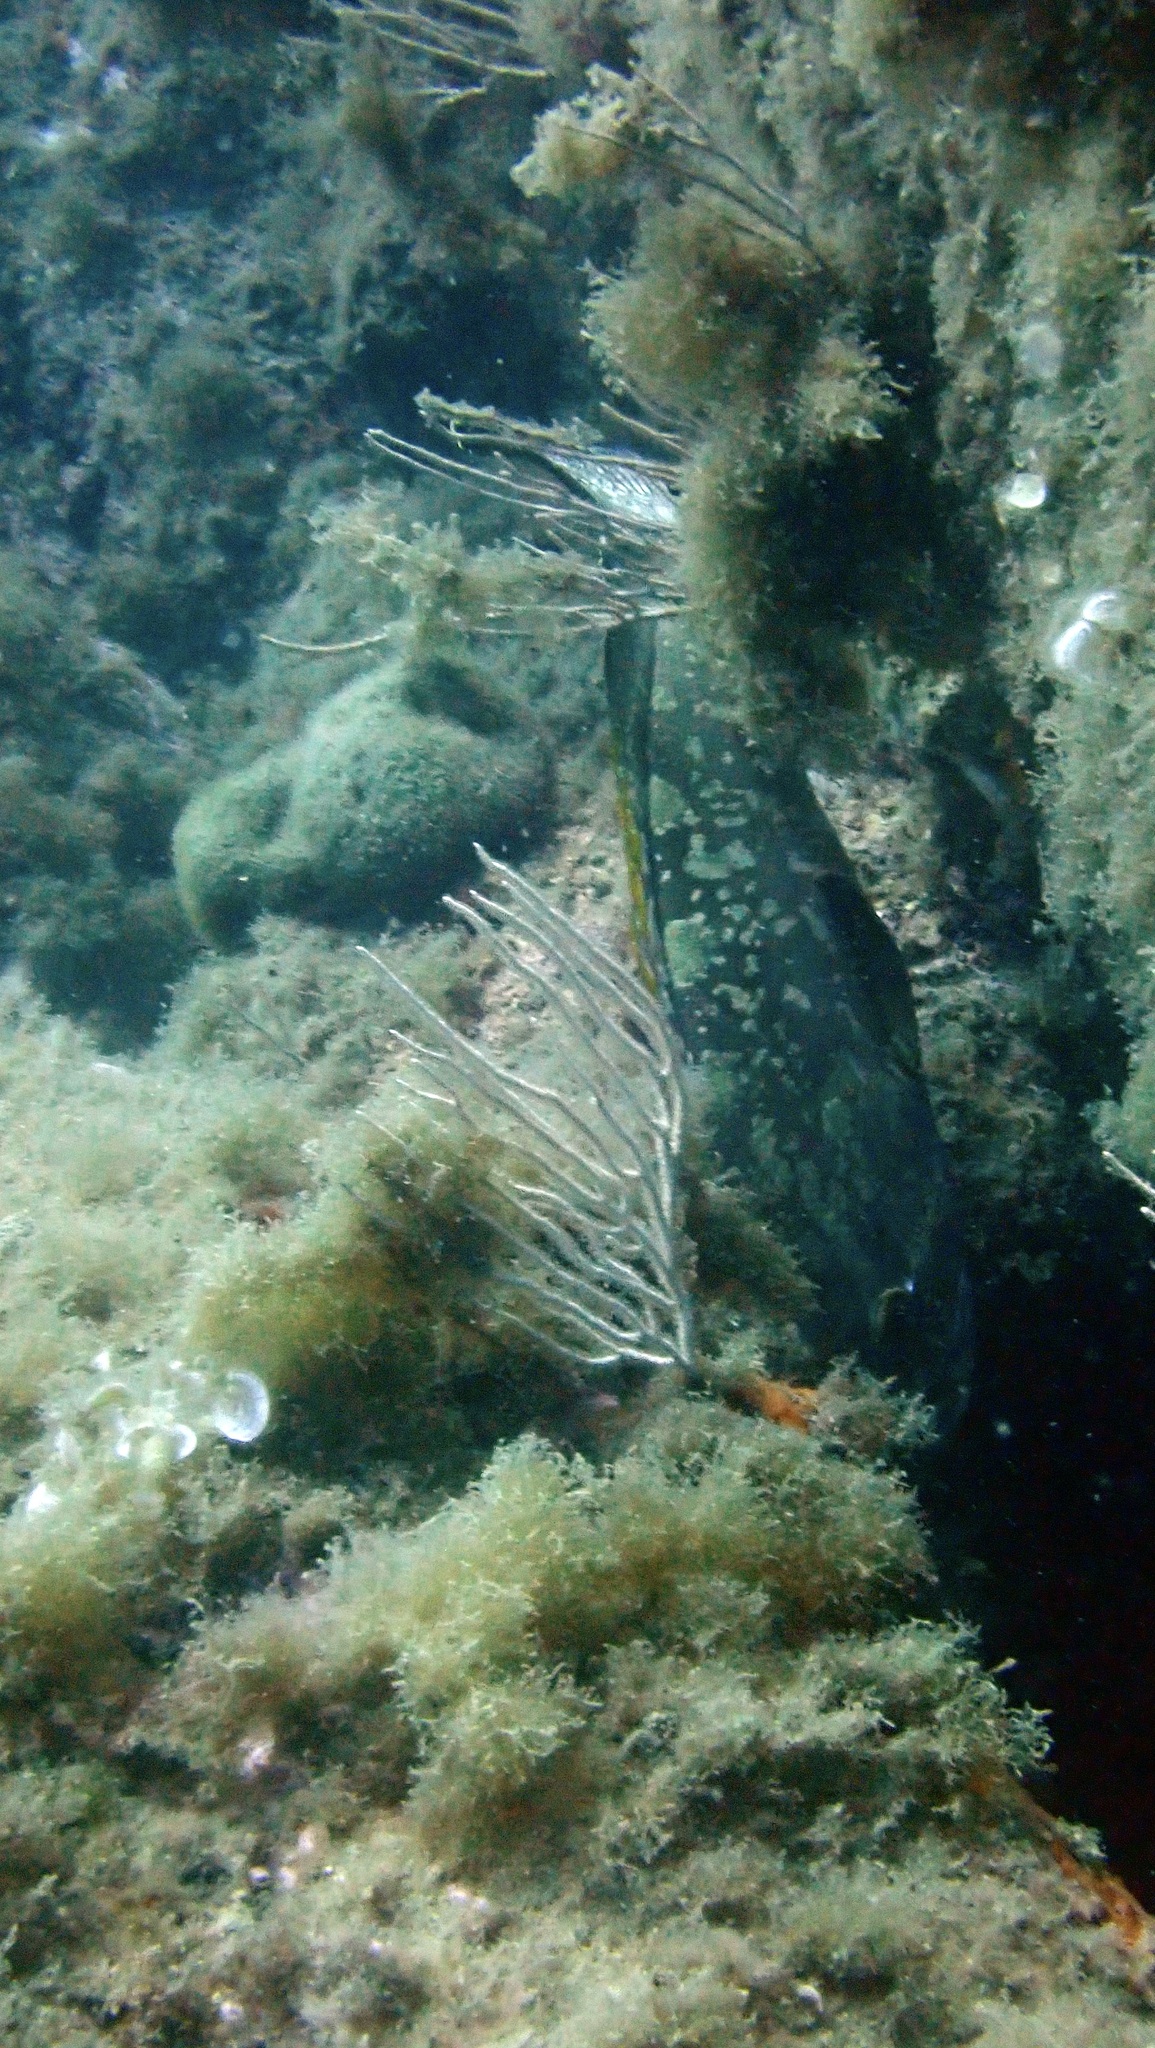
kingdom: Animalia
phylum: Chordata
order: Perciformes
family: Serranidae
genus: Epinephelus
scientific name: Epinephelus marginatus
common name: Dusky grouper
